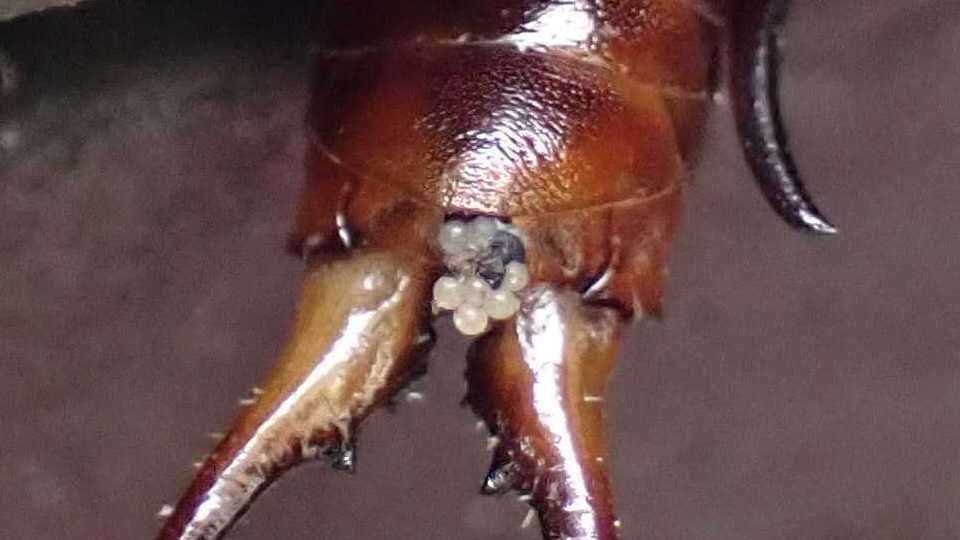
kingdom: Animalia
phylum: Arthropoda
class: Insecta
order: Dermaptera
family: Forficulidae
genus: Forficula
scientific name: Forficula
